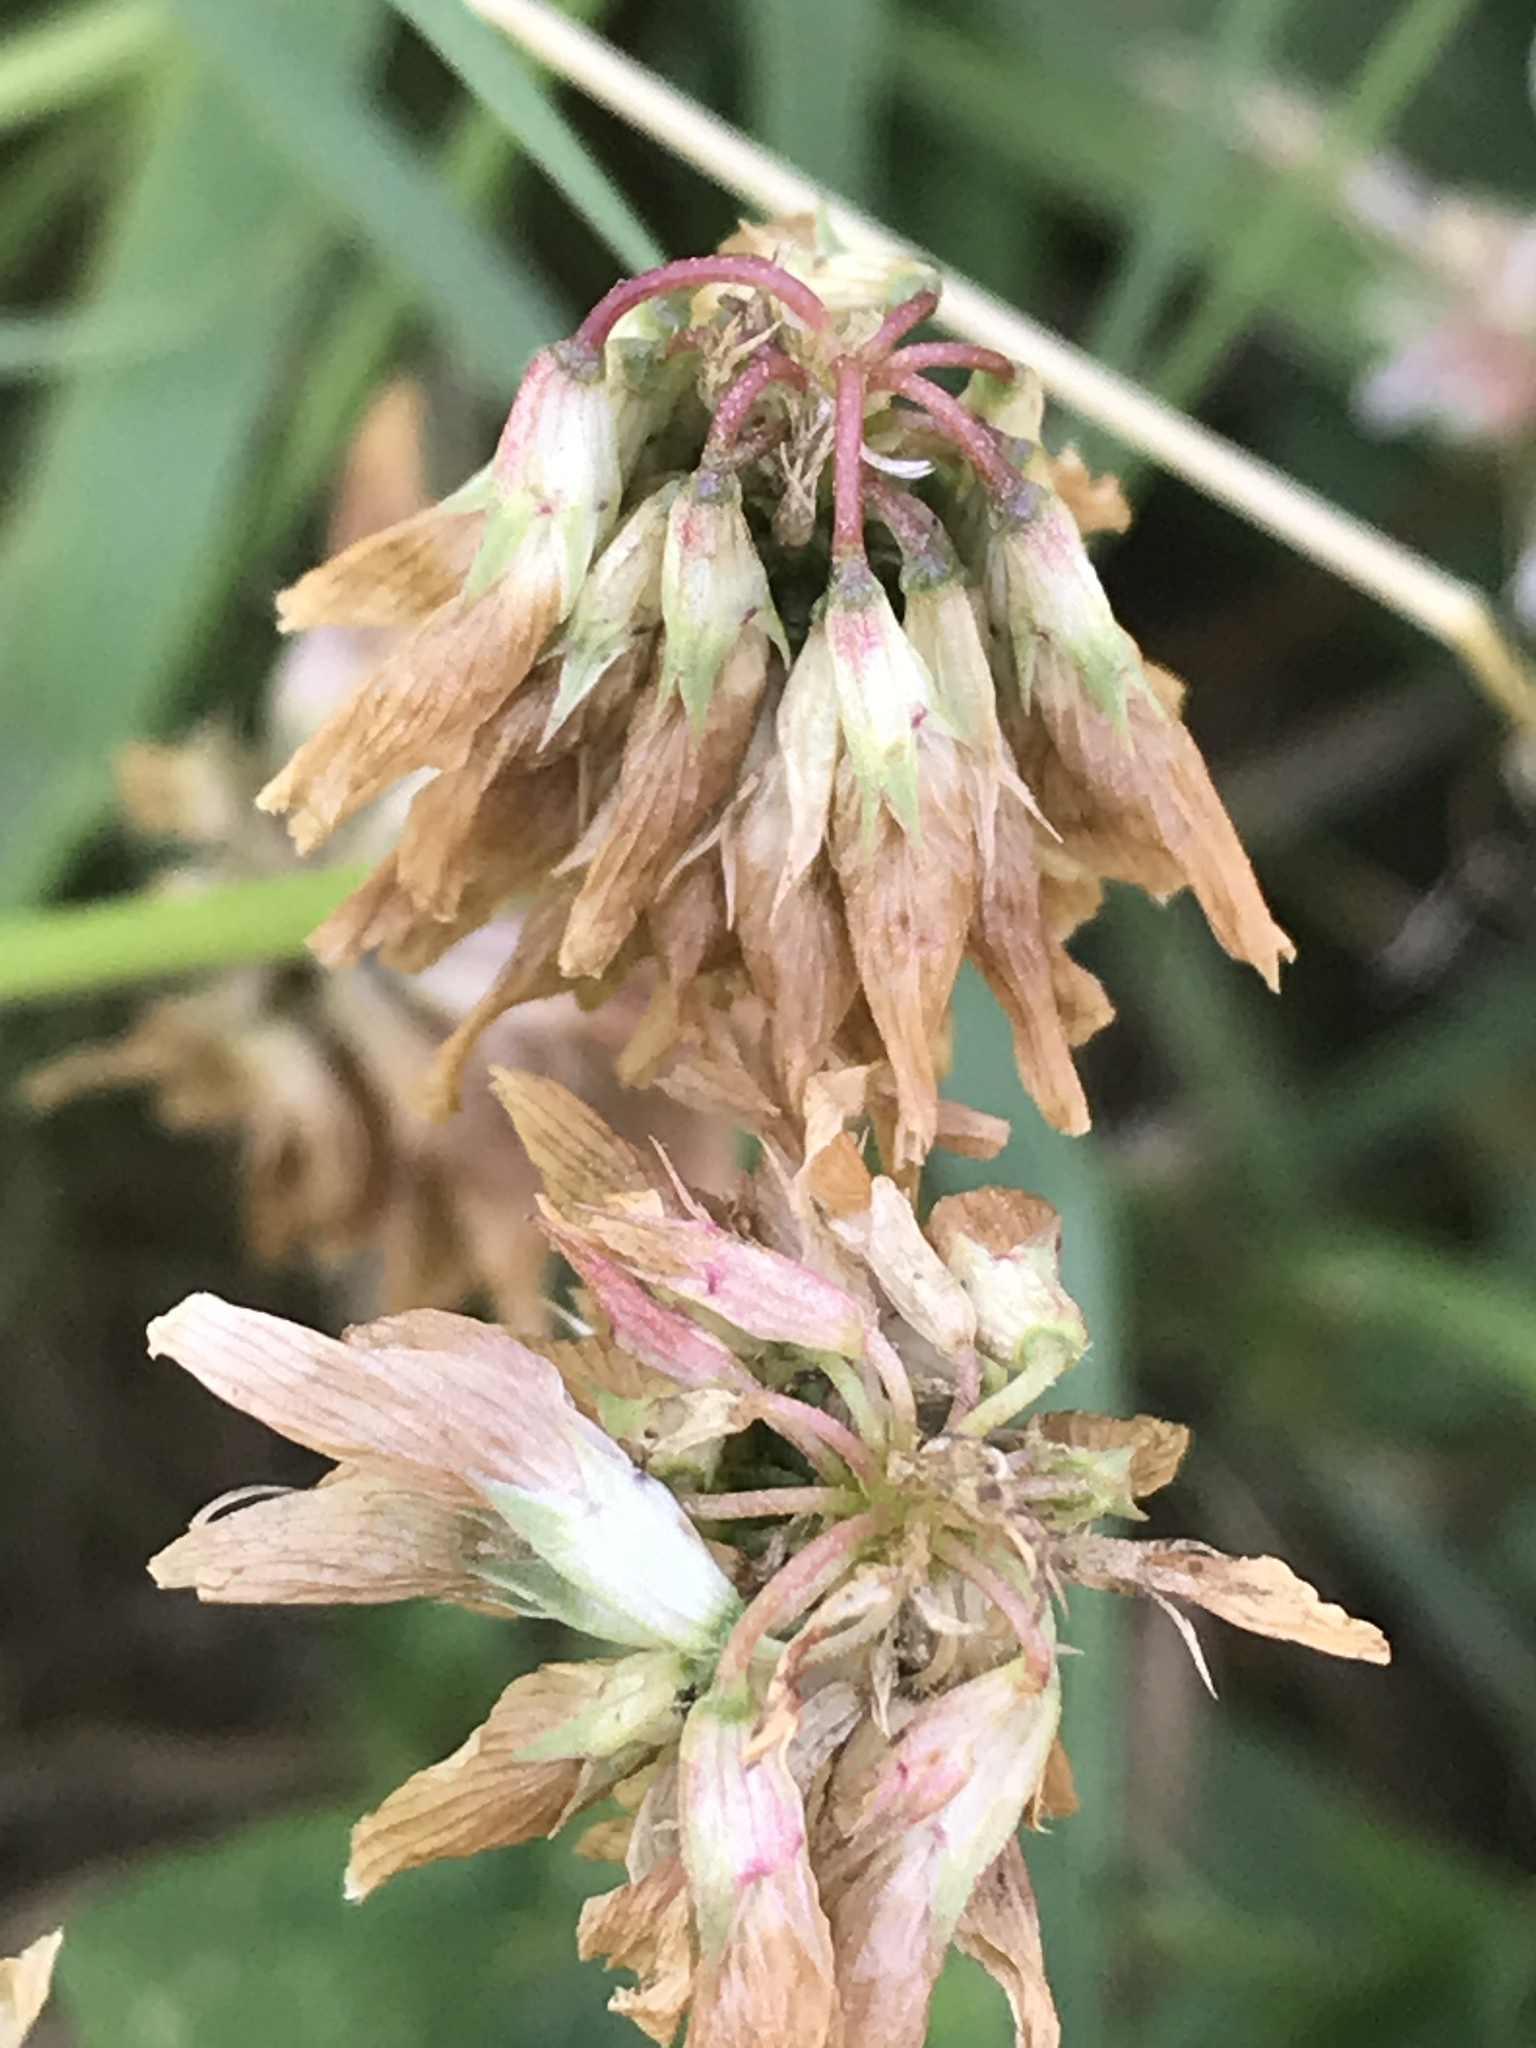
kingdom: Plantae
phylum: Tracheophyta
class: Magnoliopsida
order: Fabales
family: Fabaceae
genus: Trifolium
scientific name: Trifolium repens
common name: White clover
